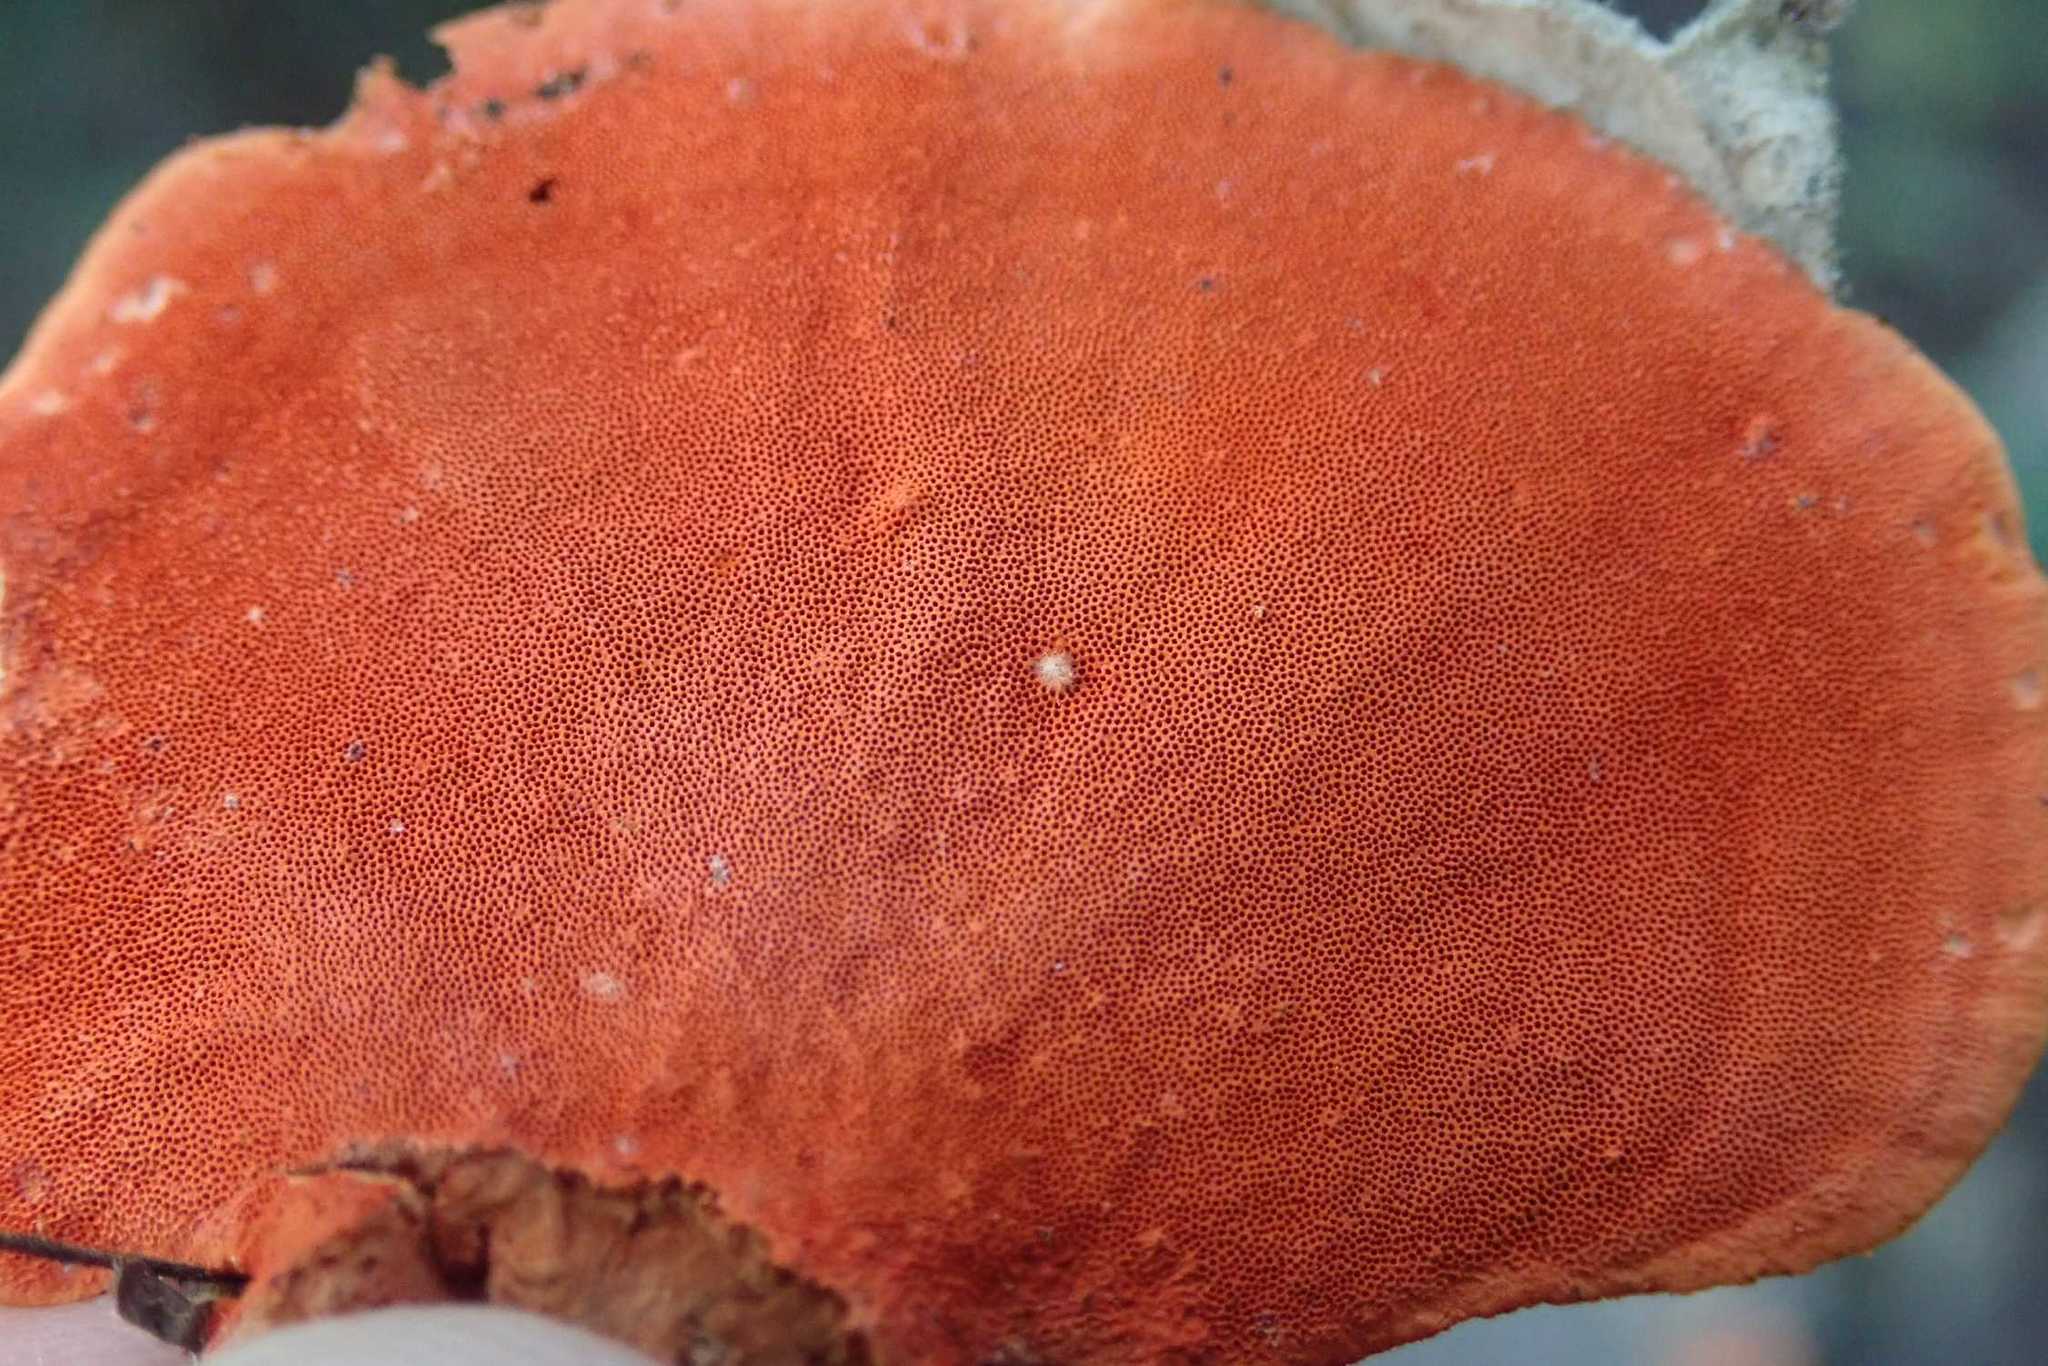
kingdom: Fungi
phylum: Basidiomycota
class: Agaricomycetes
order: Polyporales
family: Polyporaceae
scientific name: Polyporaceae
